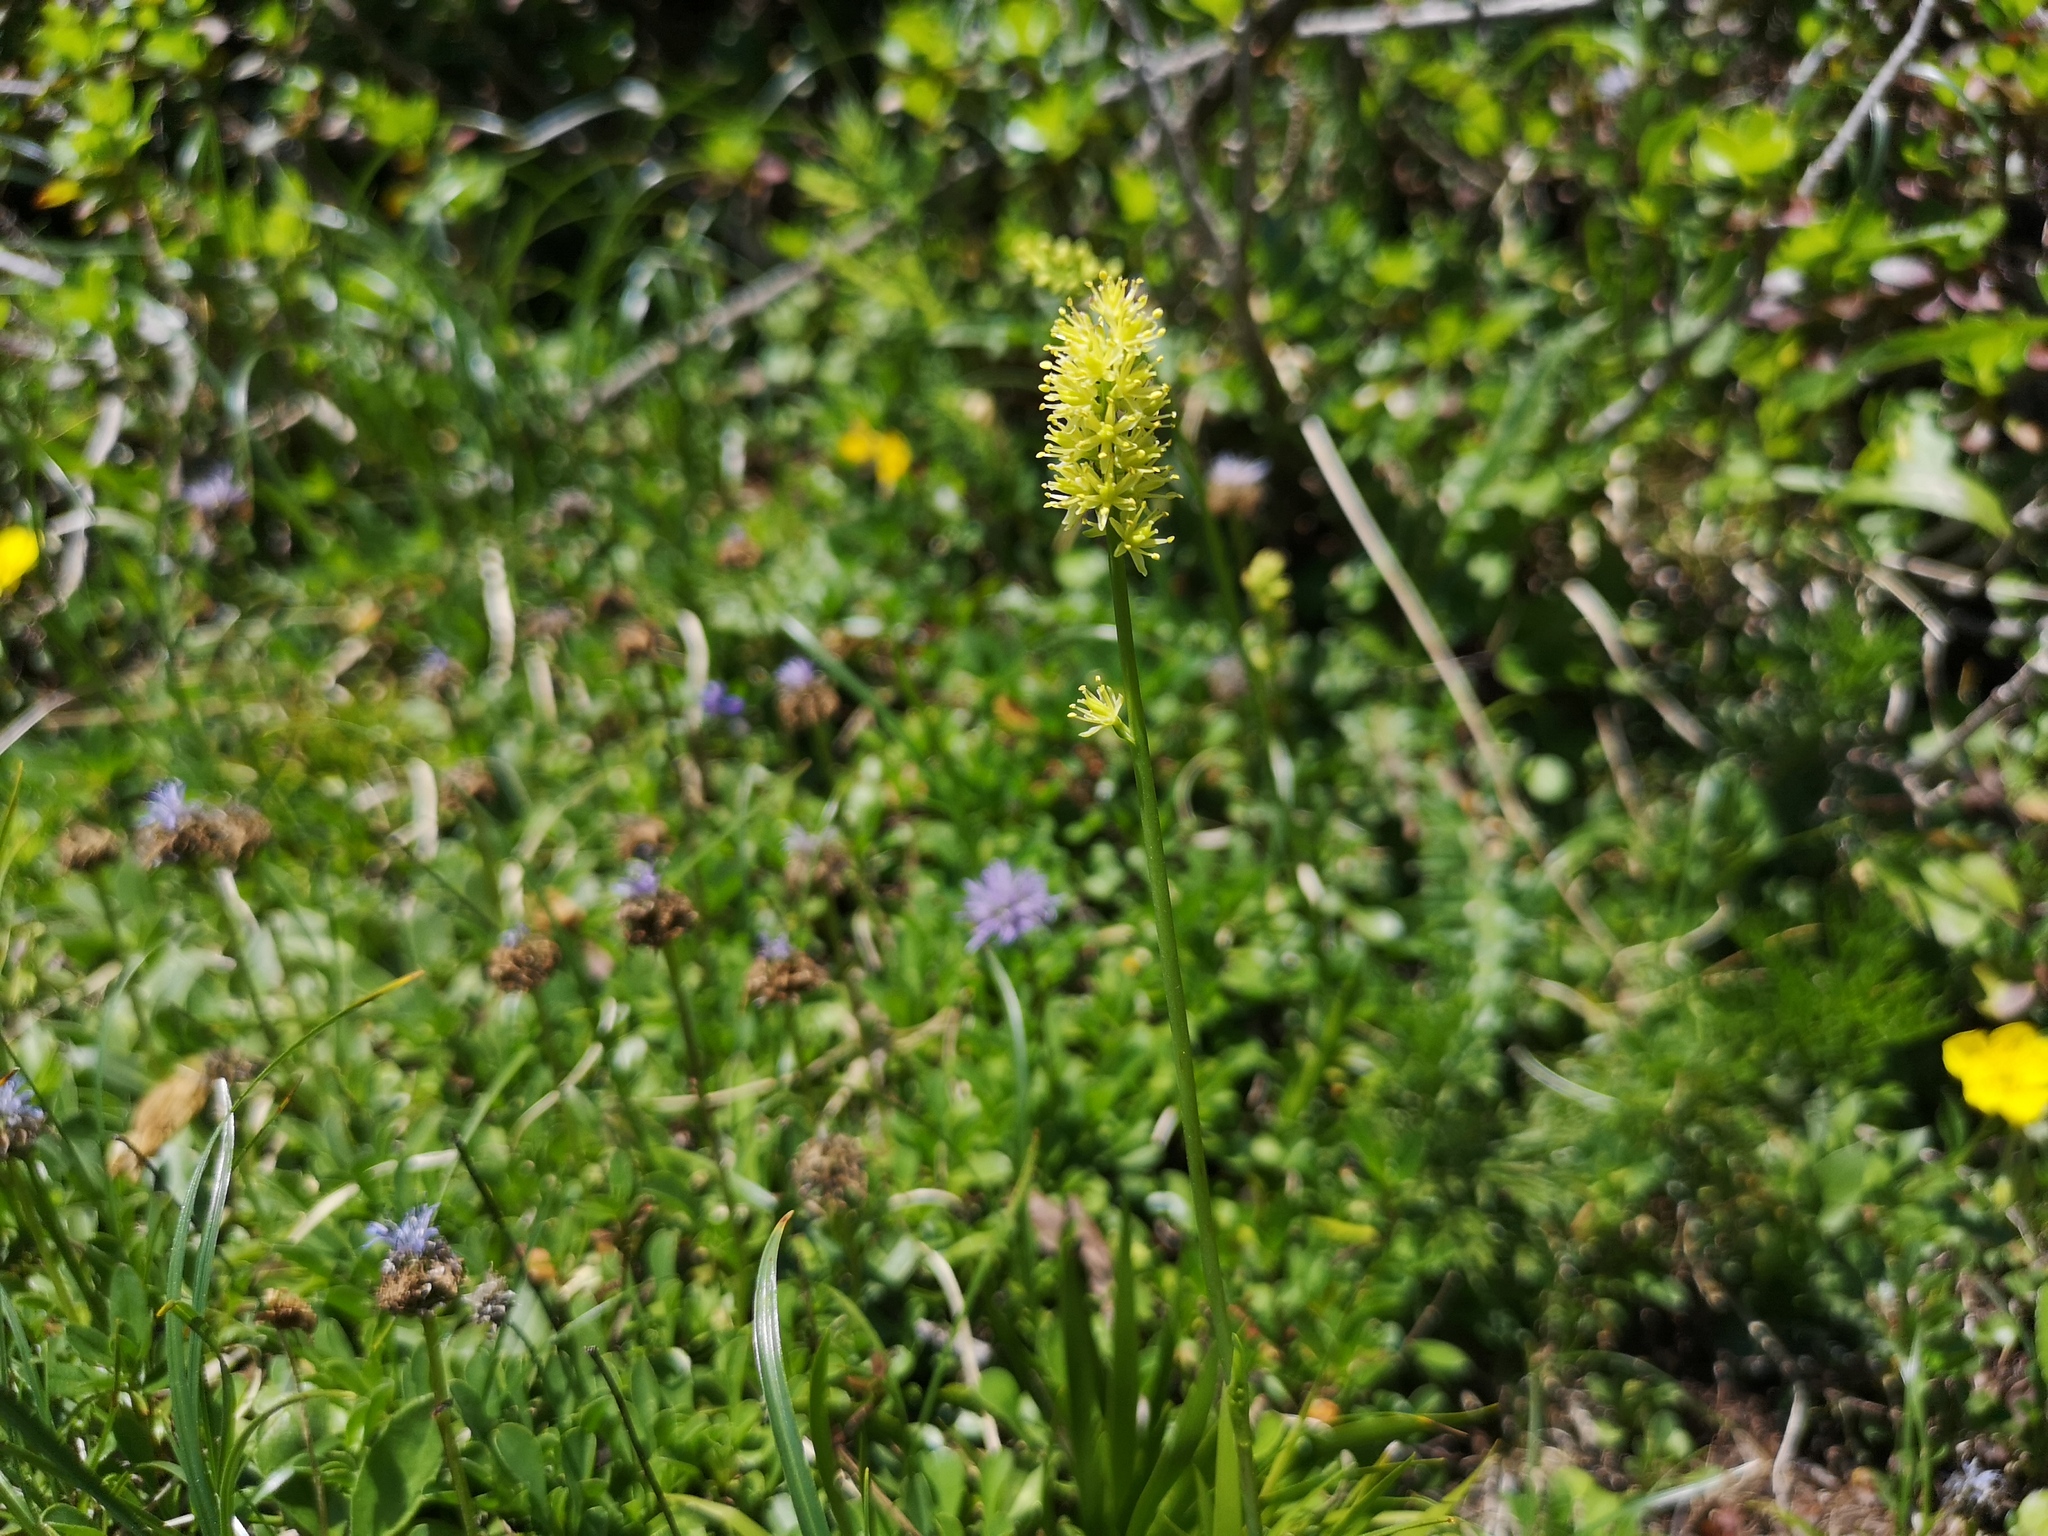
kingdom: Plantae
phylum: Tracheophyta
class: Liliopsida
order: Alismatales
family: Tofieldiaceae
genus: Tofieldia
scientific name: Tofieldia calyculata
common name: German-asphodel
